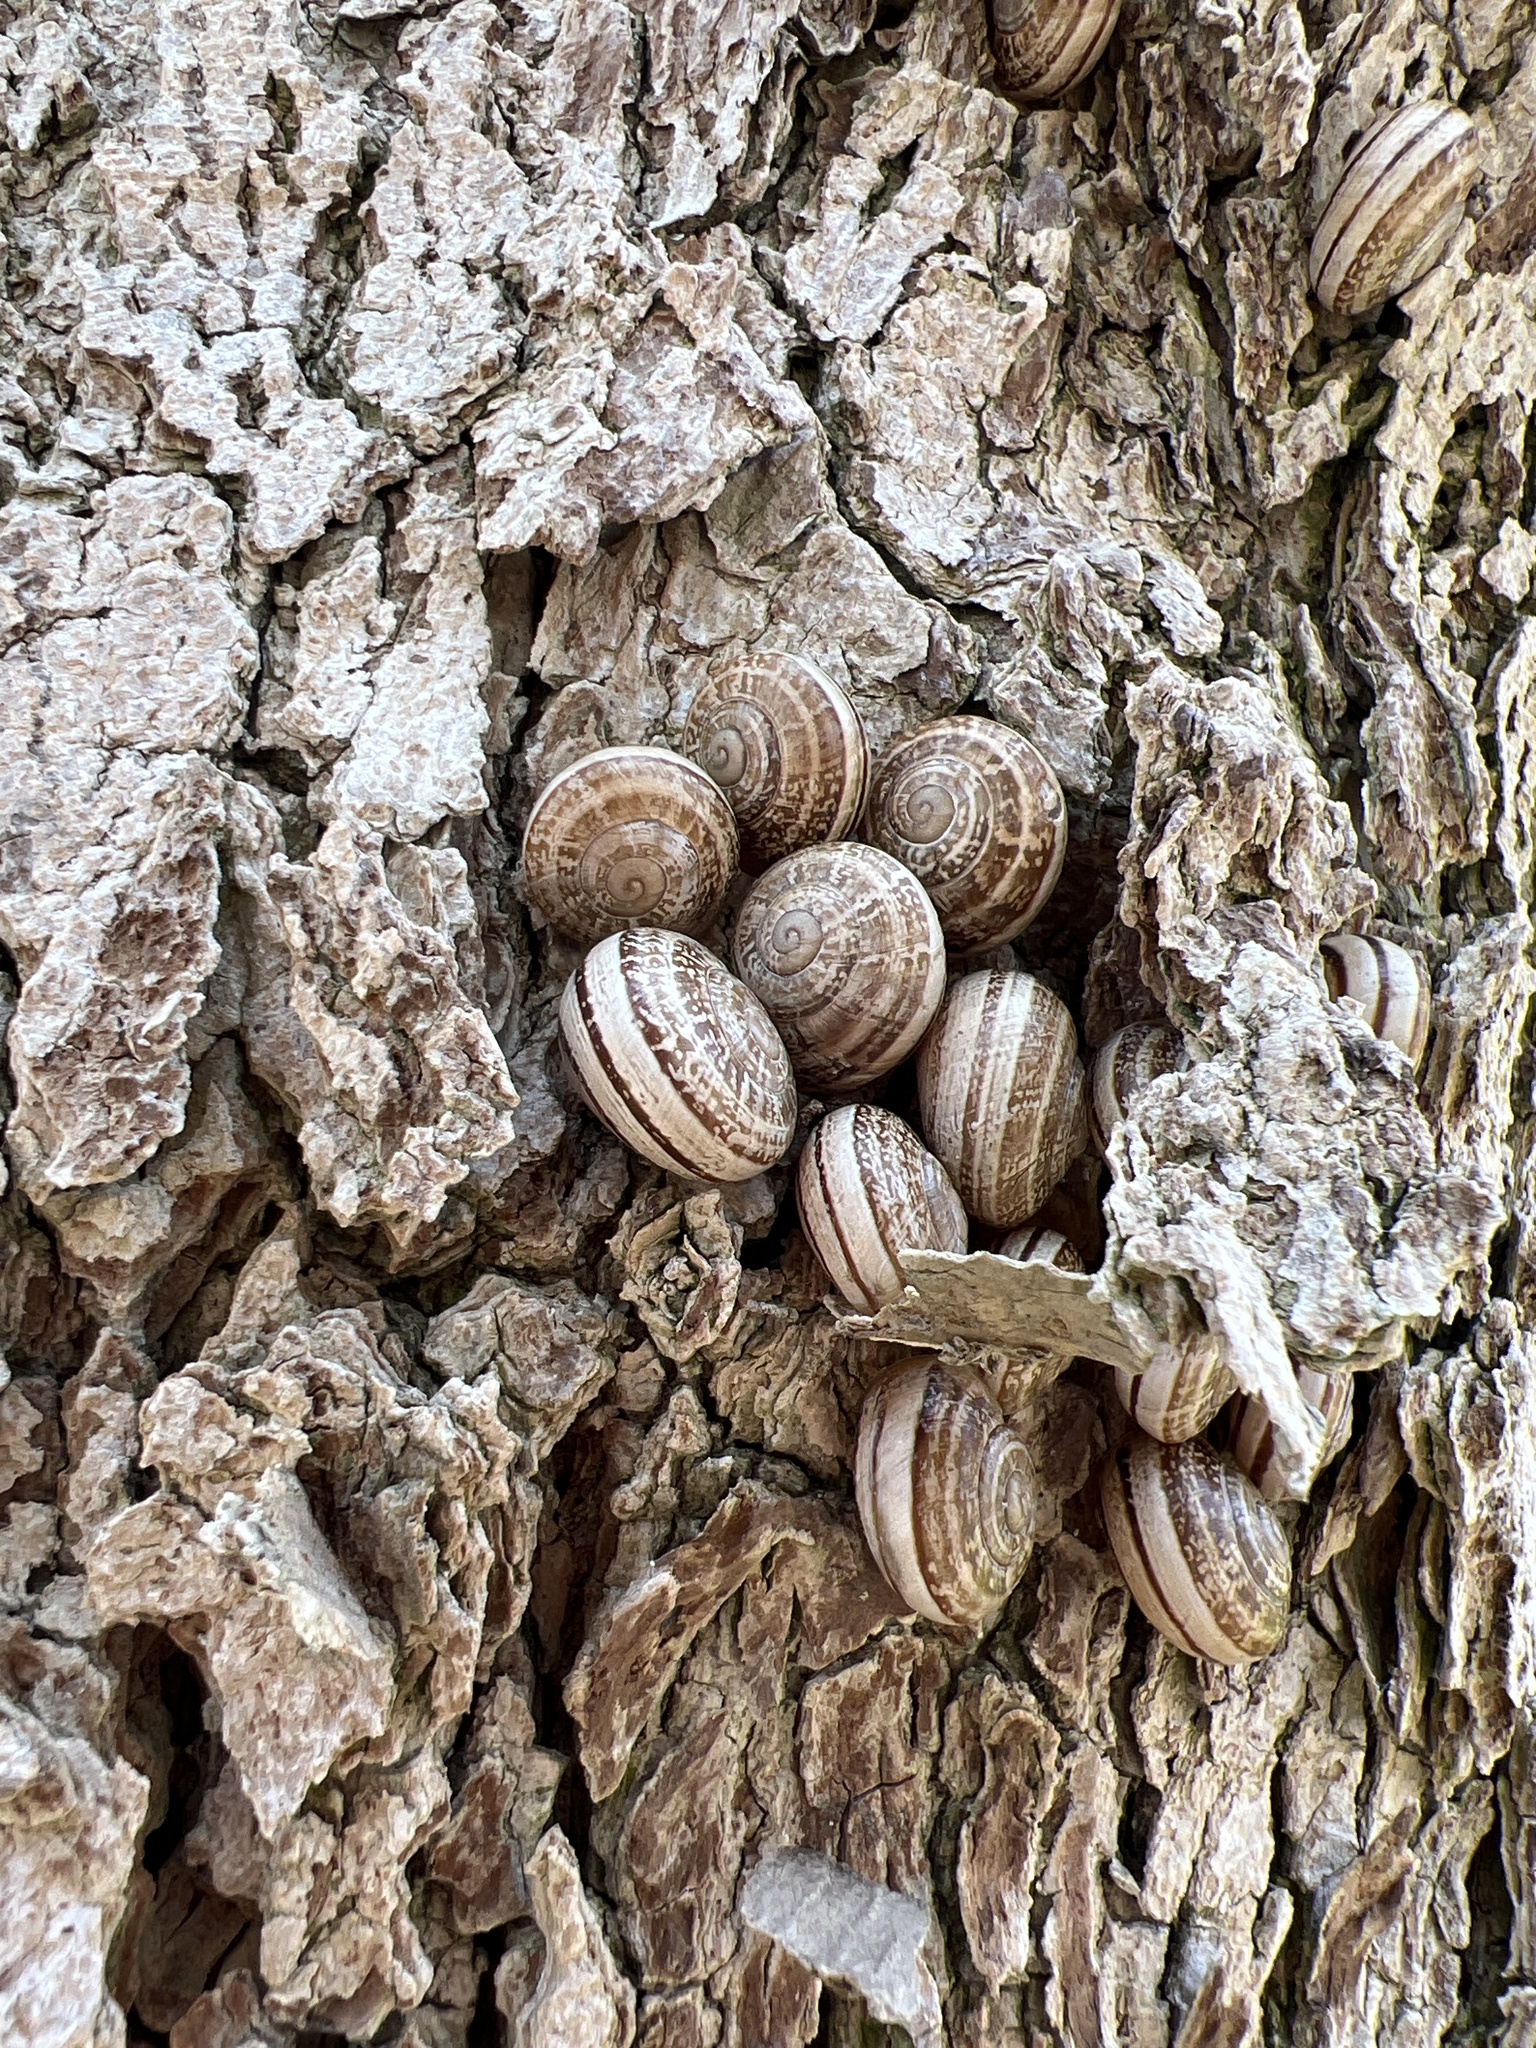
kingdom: Animalia
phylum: Mollusca
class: Gastropoda
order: Stylommatophora
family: Helicidae
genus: Otala
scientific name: Otala lactea
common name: Milk snail
